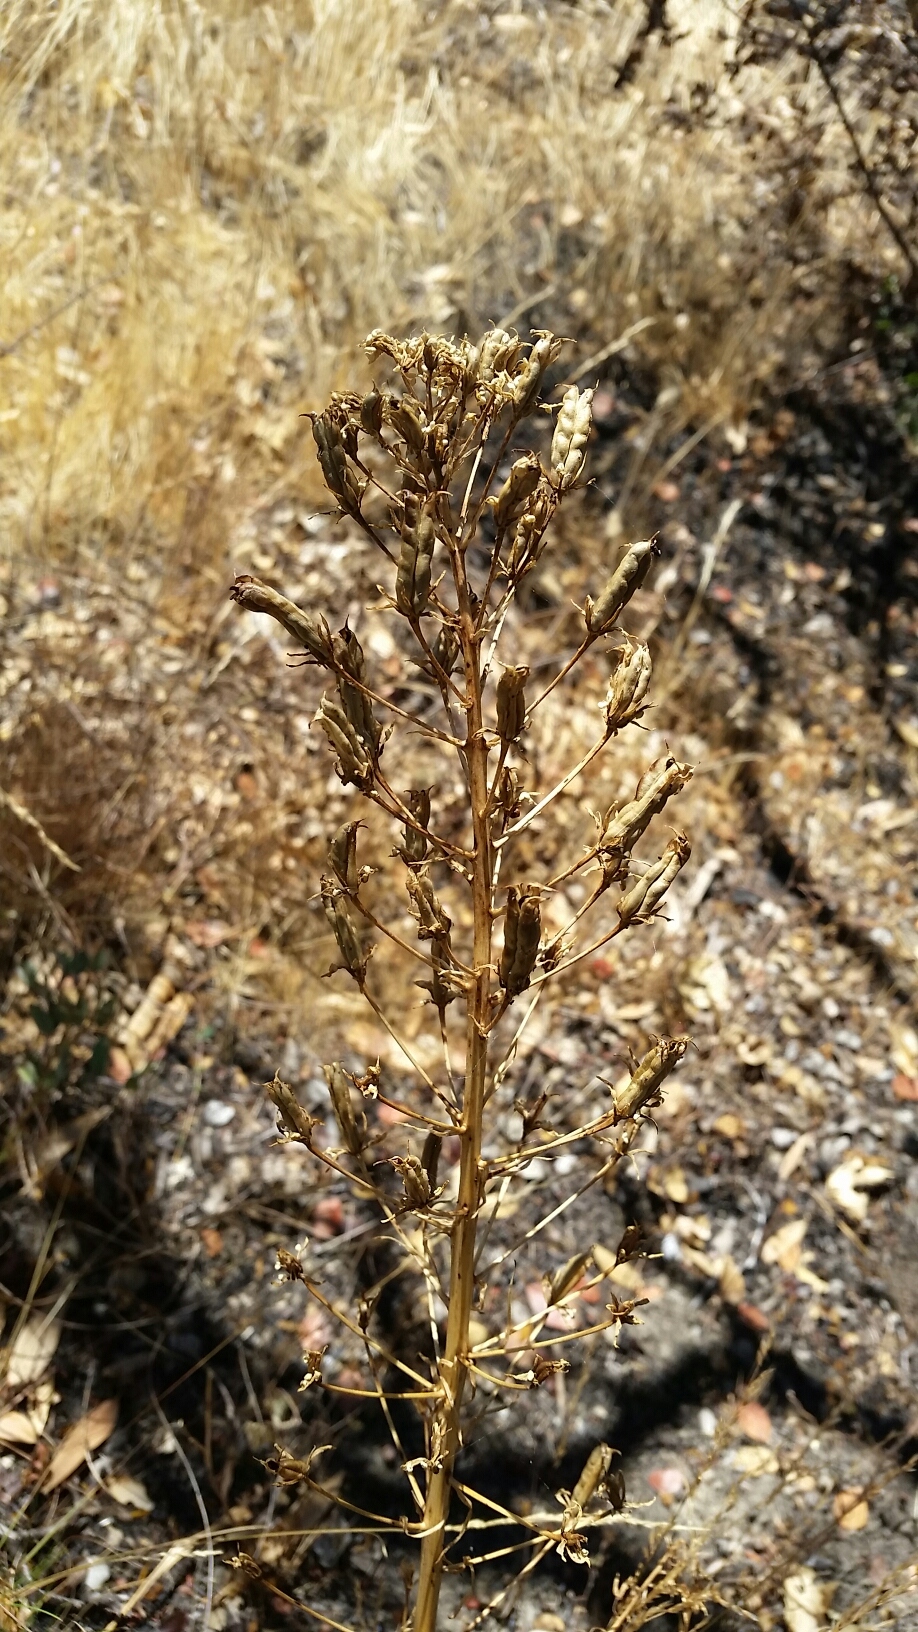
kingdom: Plantae
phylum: Tracheophyta
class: Liliopsida
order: Liliales
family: Melanthiaceae
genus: Toxicoscordion
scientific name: Toxicoscordion fremontii
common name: Fremont's death camas
